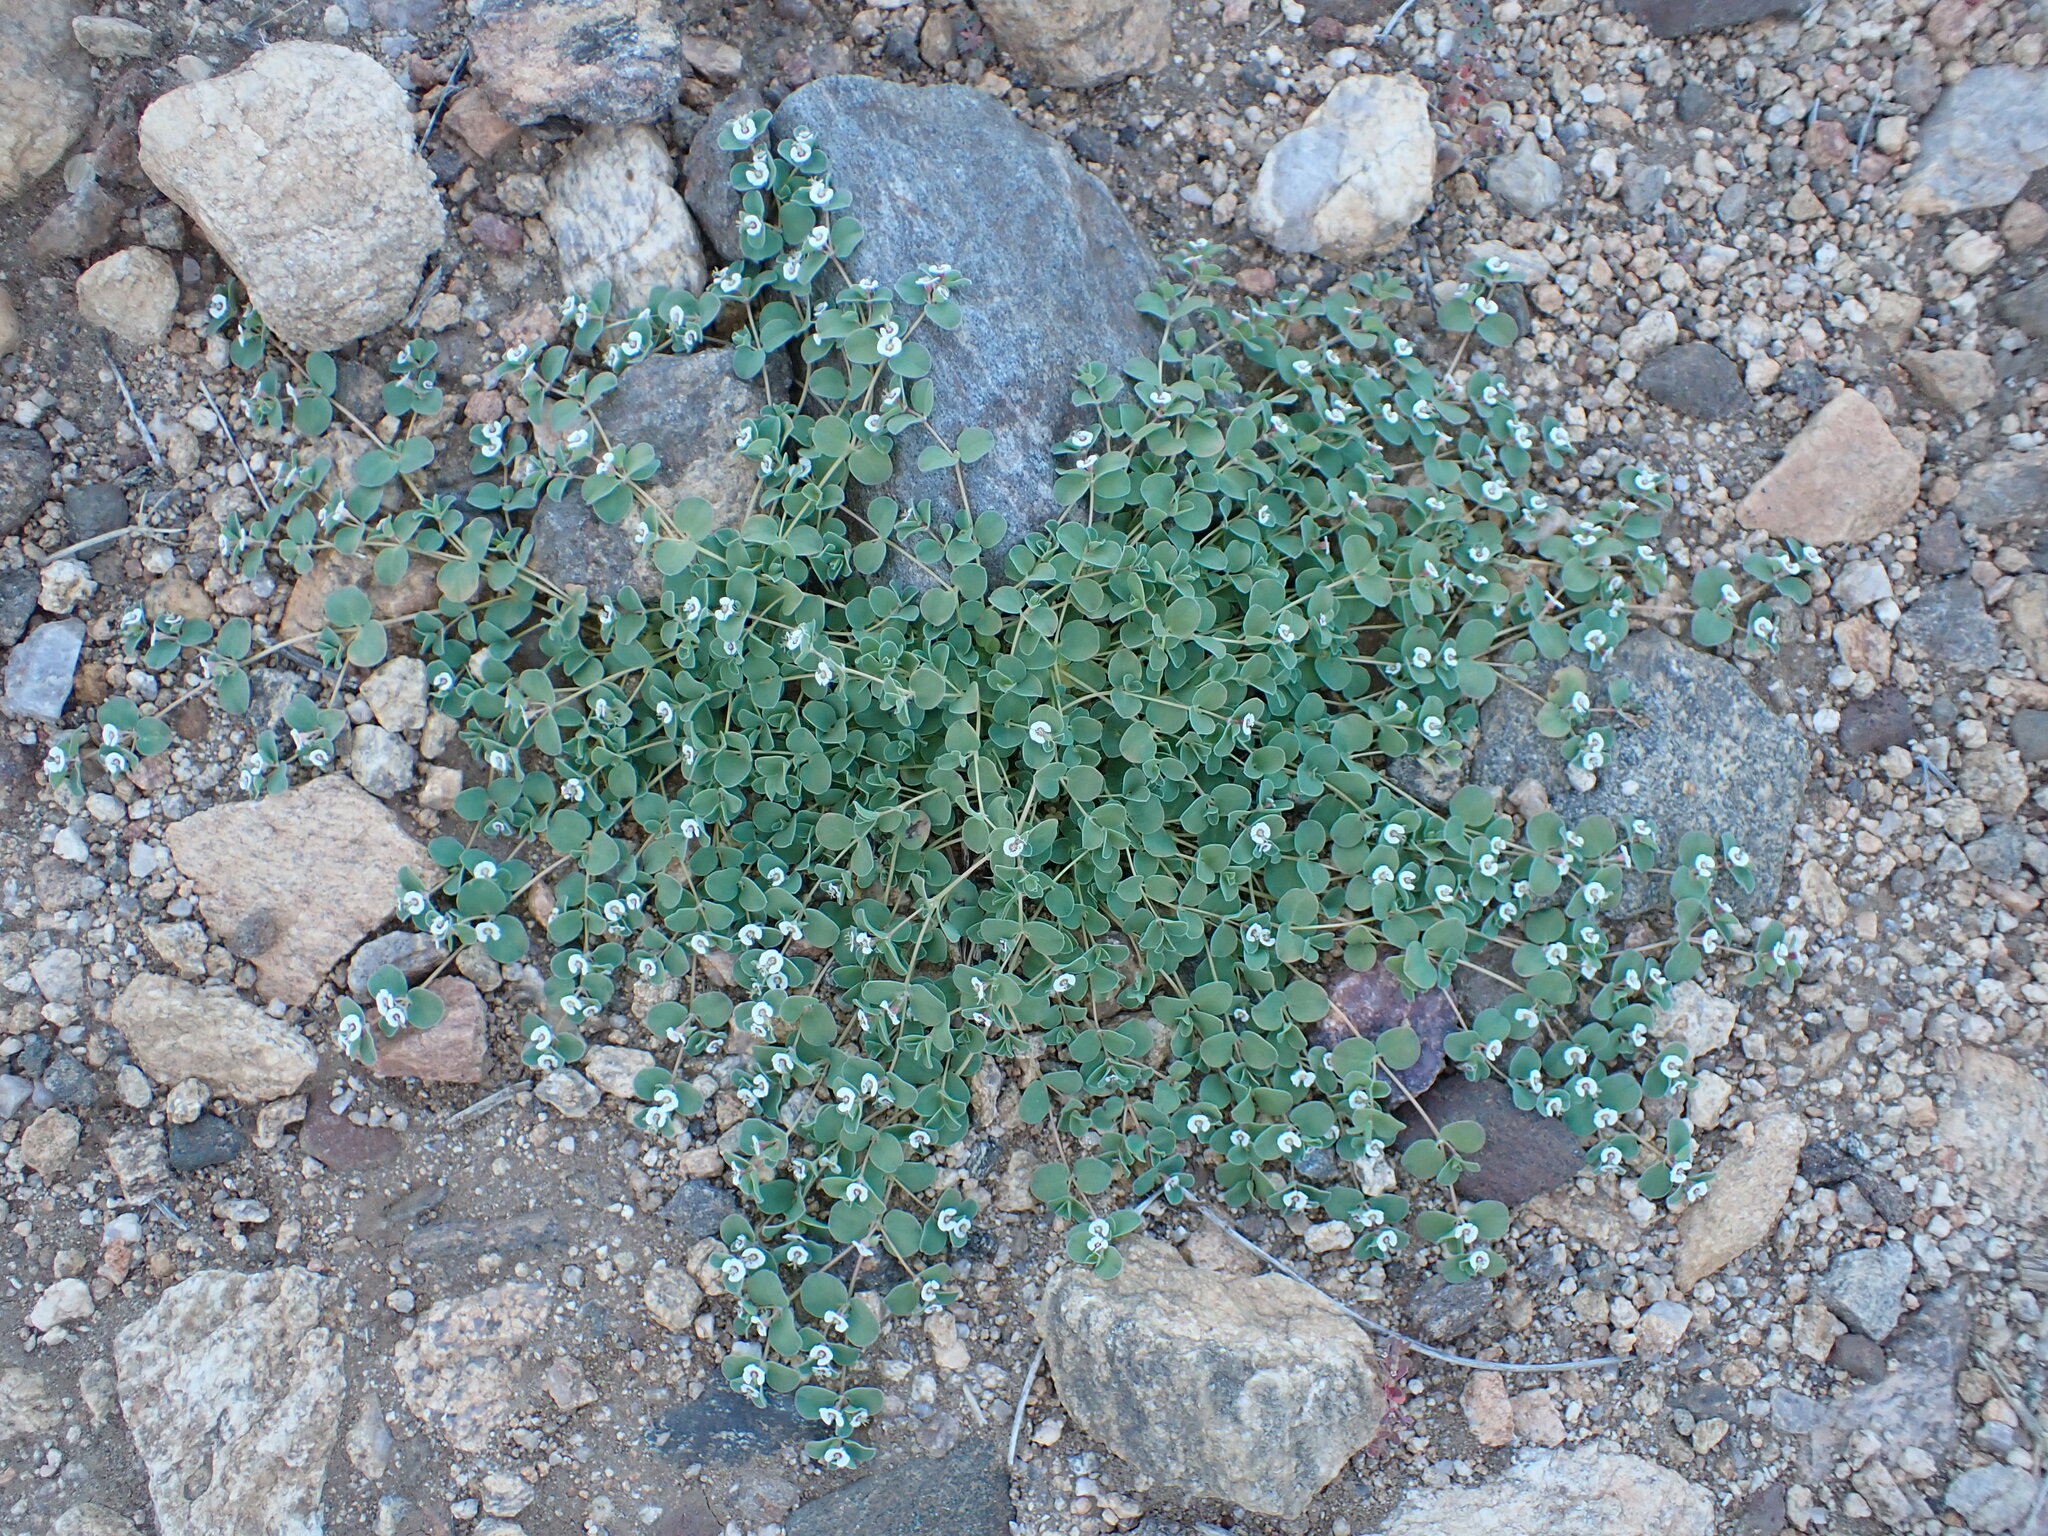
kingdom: Plantae
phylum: Tracheophyta
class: Magnoliopsida
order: Malpighiales
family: Euphorbiaceae
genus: Euphorbia
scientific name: Euphorbia albomarginata
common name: Whitemargin sandmat
